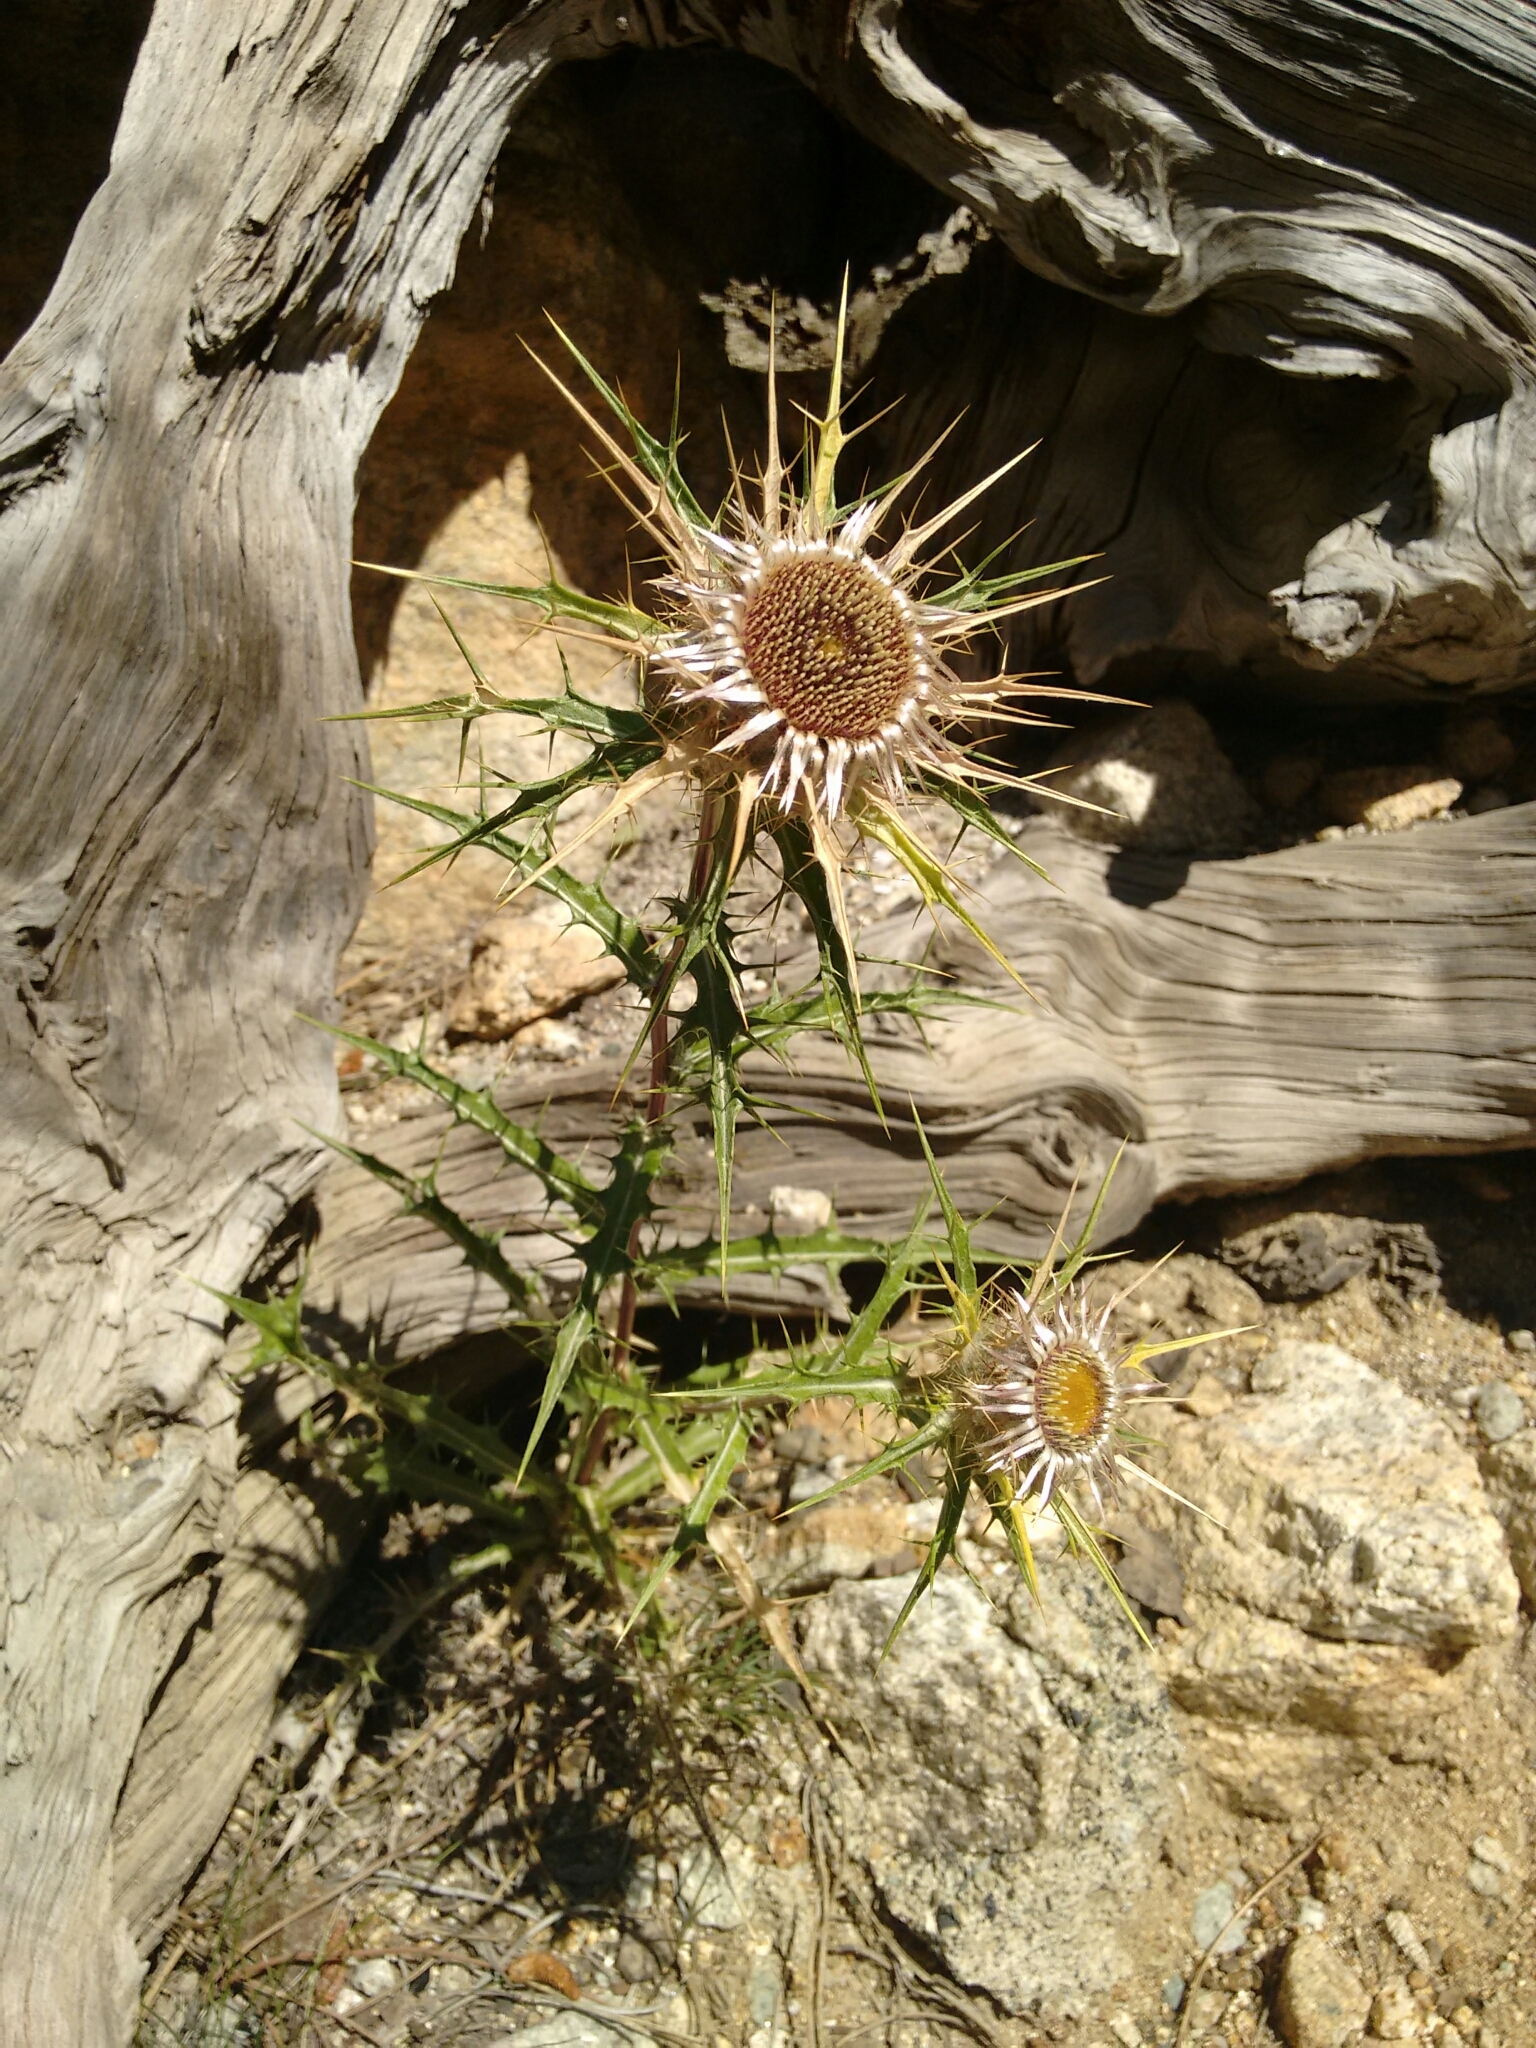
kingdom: Plantae
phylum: Tracheophyta
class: Magnoliopsida
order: Asterales
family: Asteraceae
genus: Chamaeleon
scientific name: Chamaeleon macrocephalus
